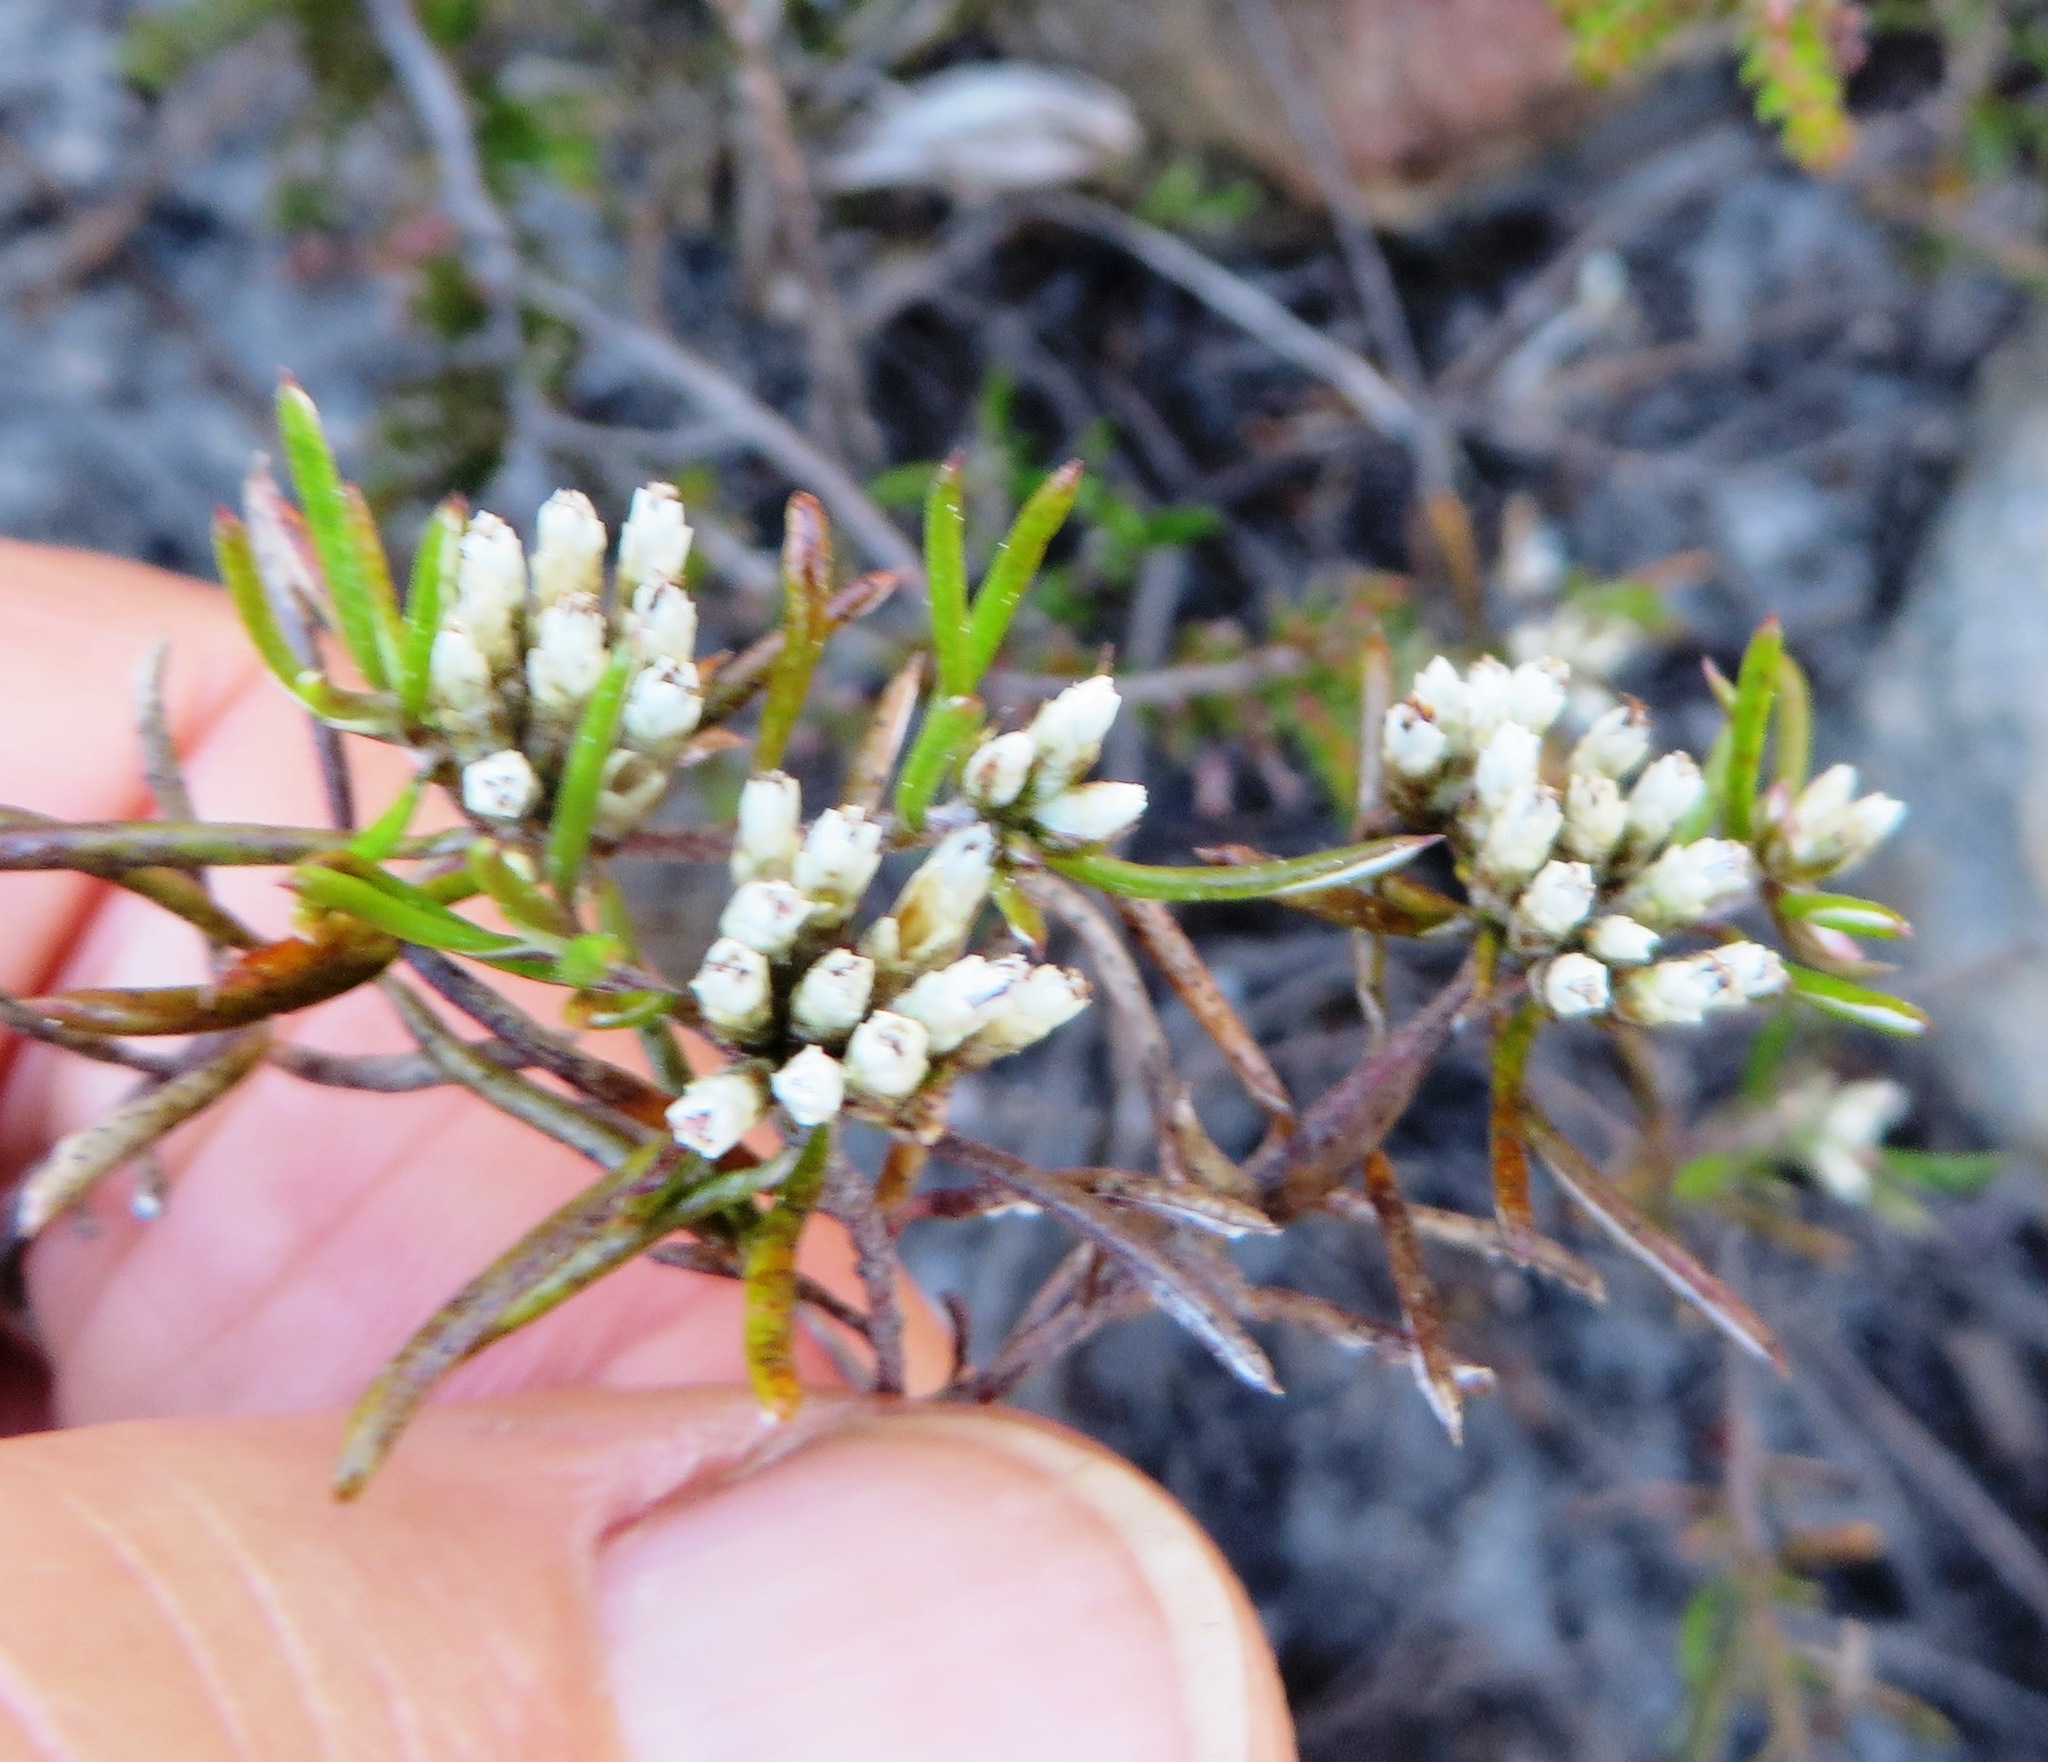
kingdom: Plantae
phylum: Tracheophyta
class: Magnoliopsida
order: Asterales
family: Asteraceae
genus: Metalasia
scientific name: Metalasia tenuifolia
